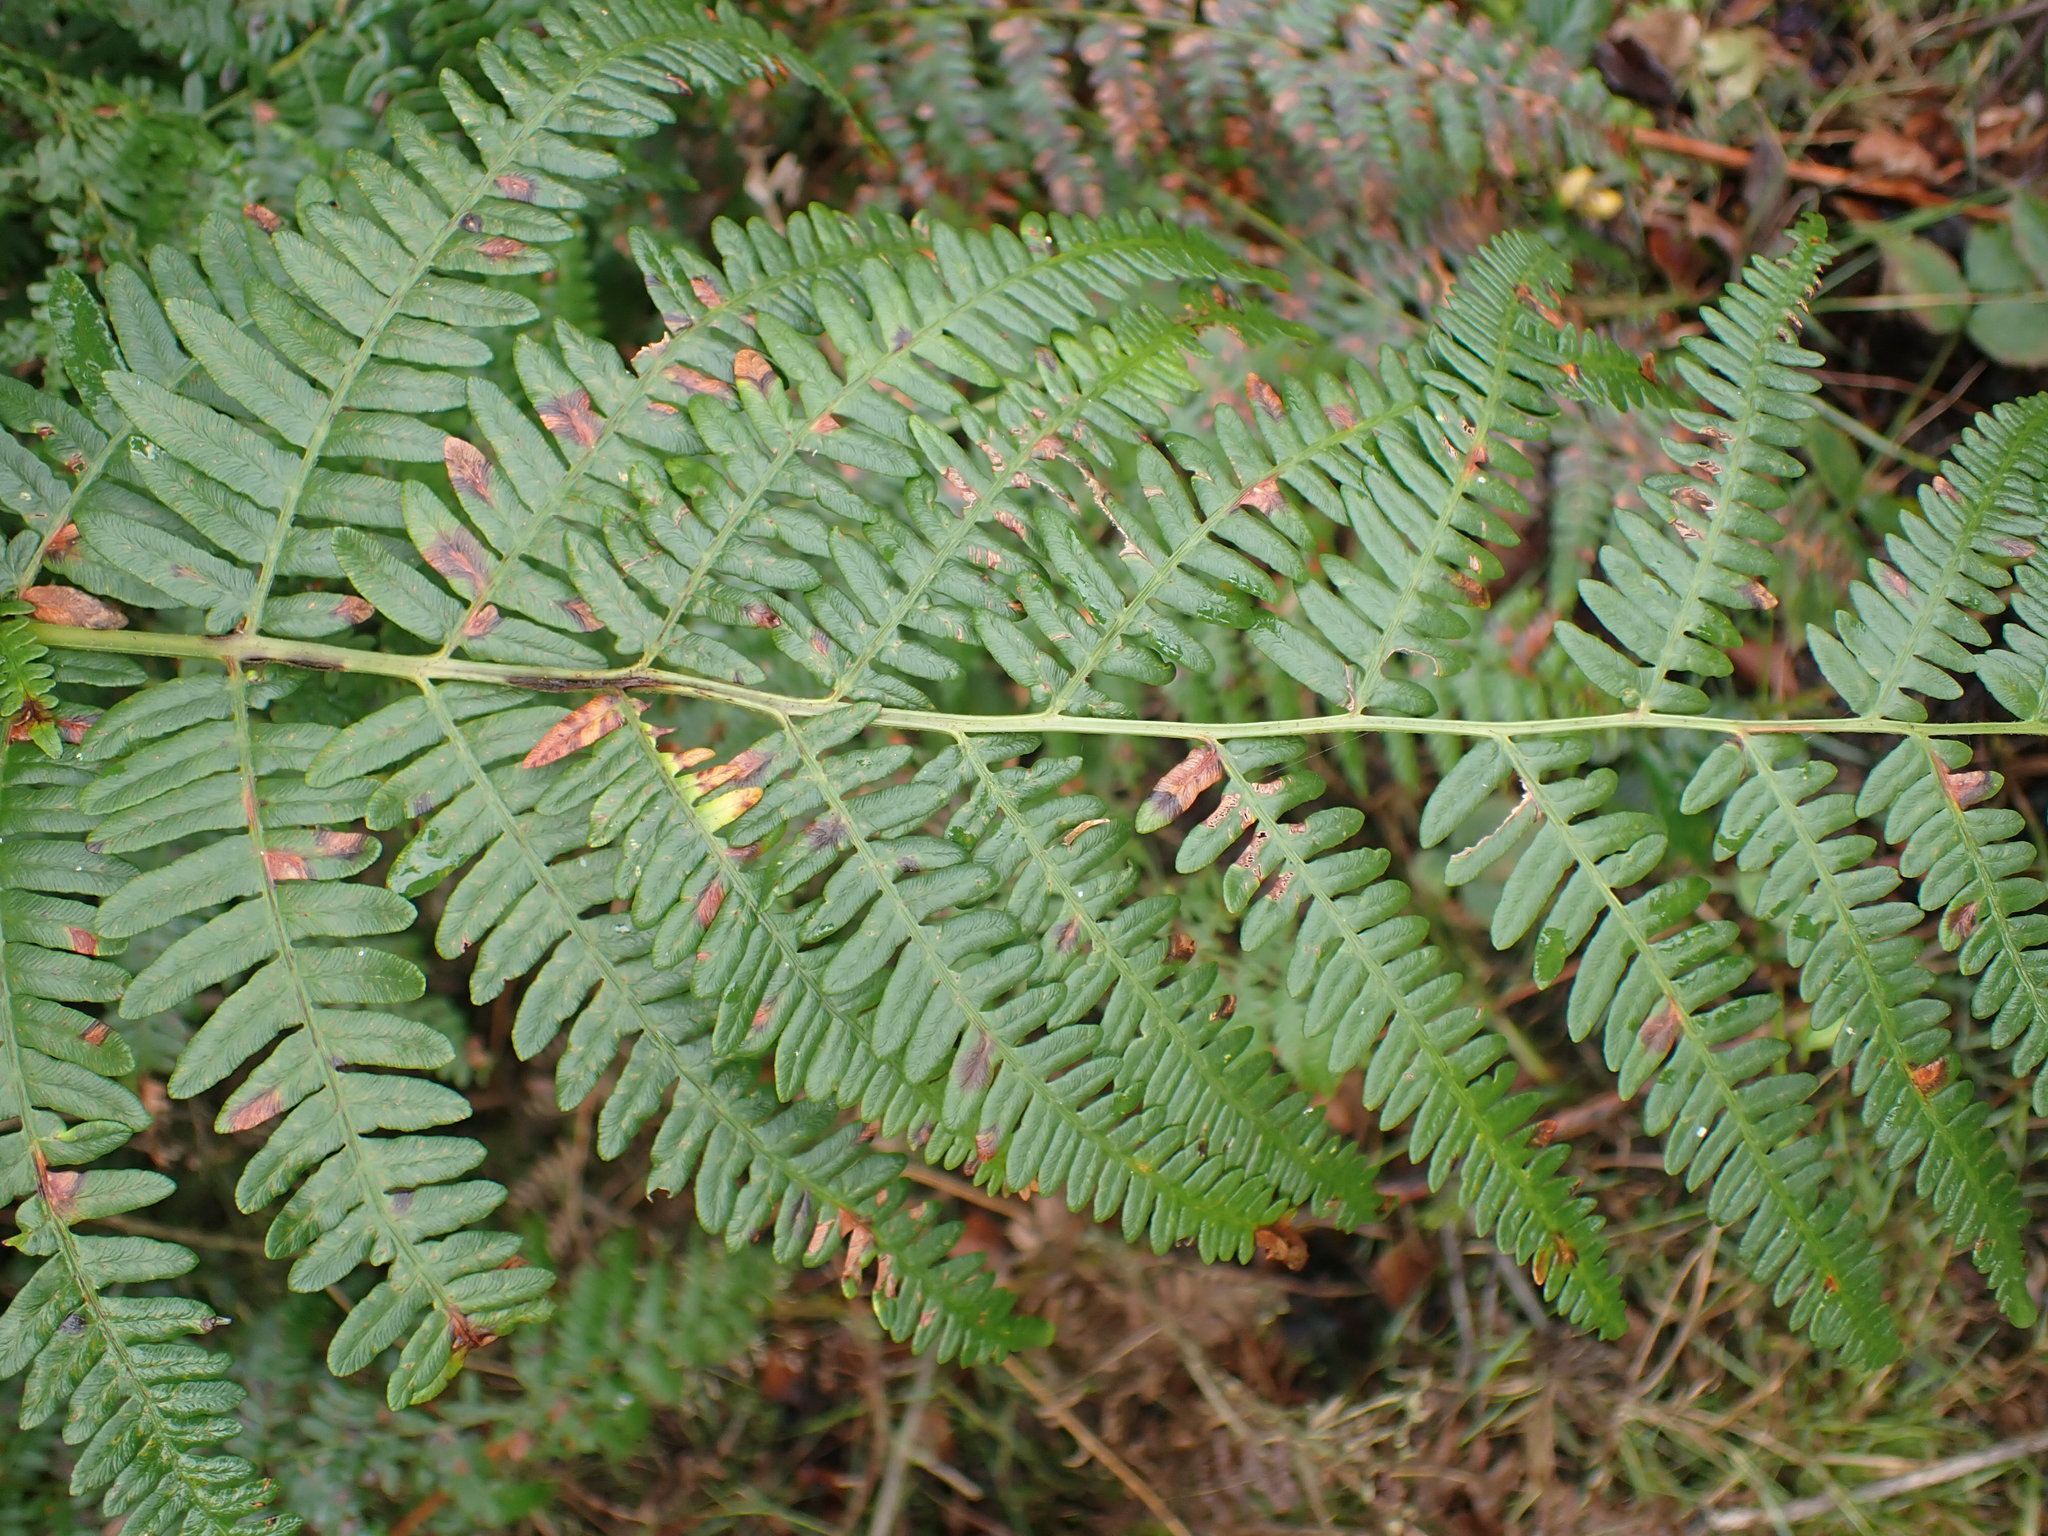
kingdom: Plantae
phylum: Tracheophyta
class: Polypodiopsida
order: Polypodiales
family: Dennstaedtiaceae
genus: Pteridium
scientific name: Pteridium aquilinum
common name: Bracken
